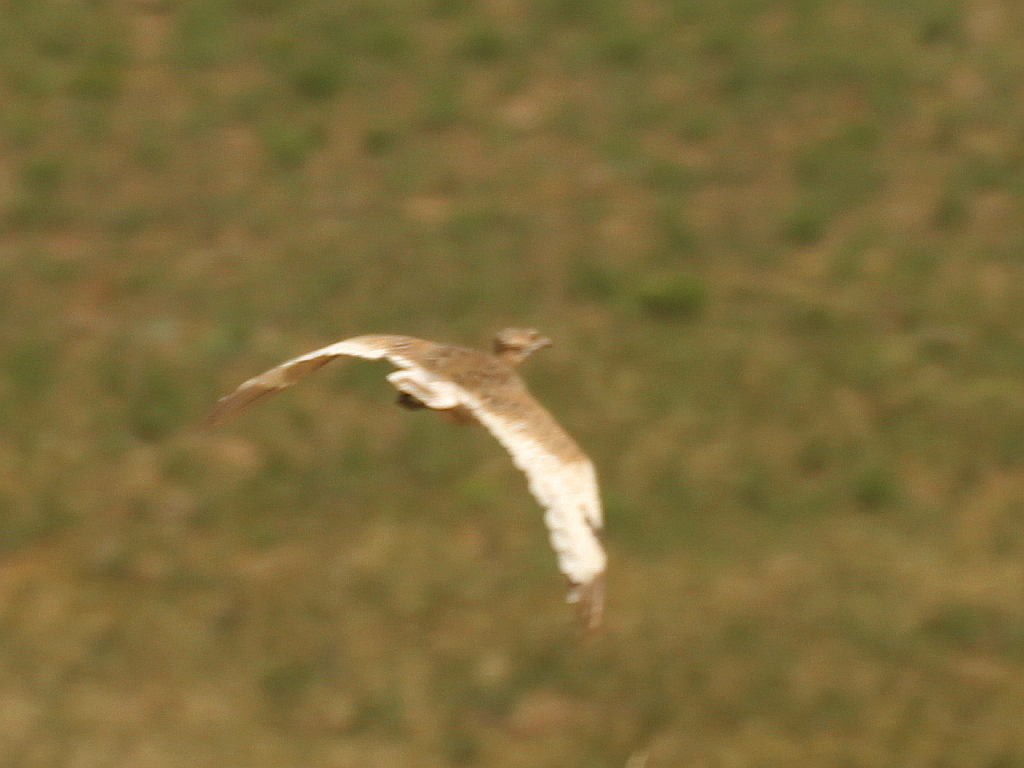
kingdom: Animalia
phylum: Chordata
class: Aves
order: Otidiformes
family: Otididae
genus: Tetrax
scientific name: Tetrax tetrax
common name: Little bustard
